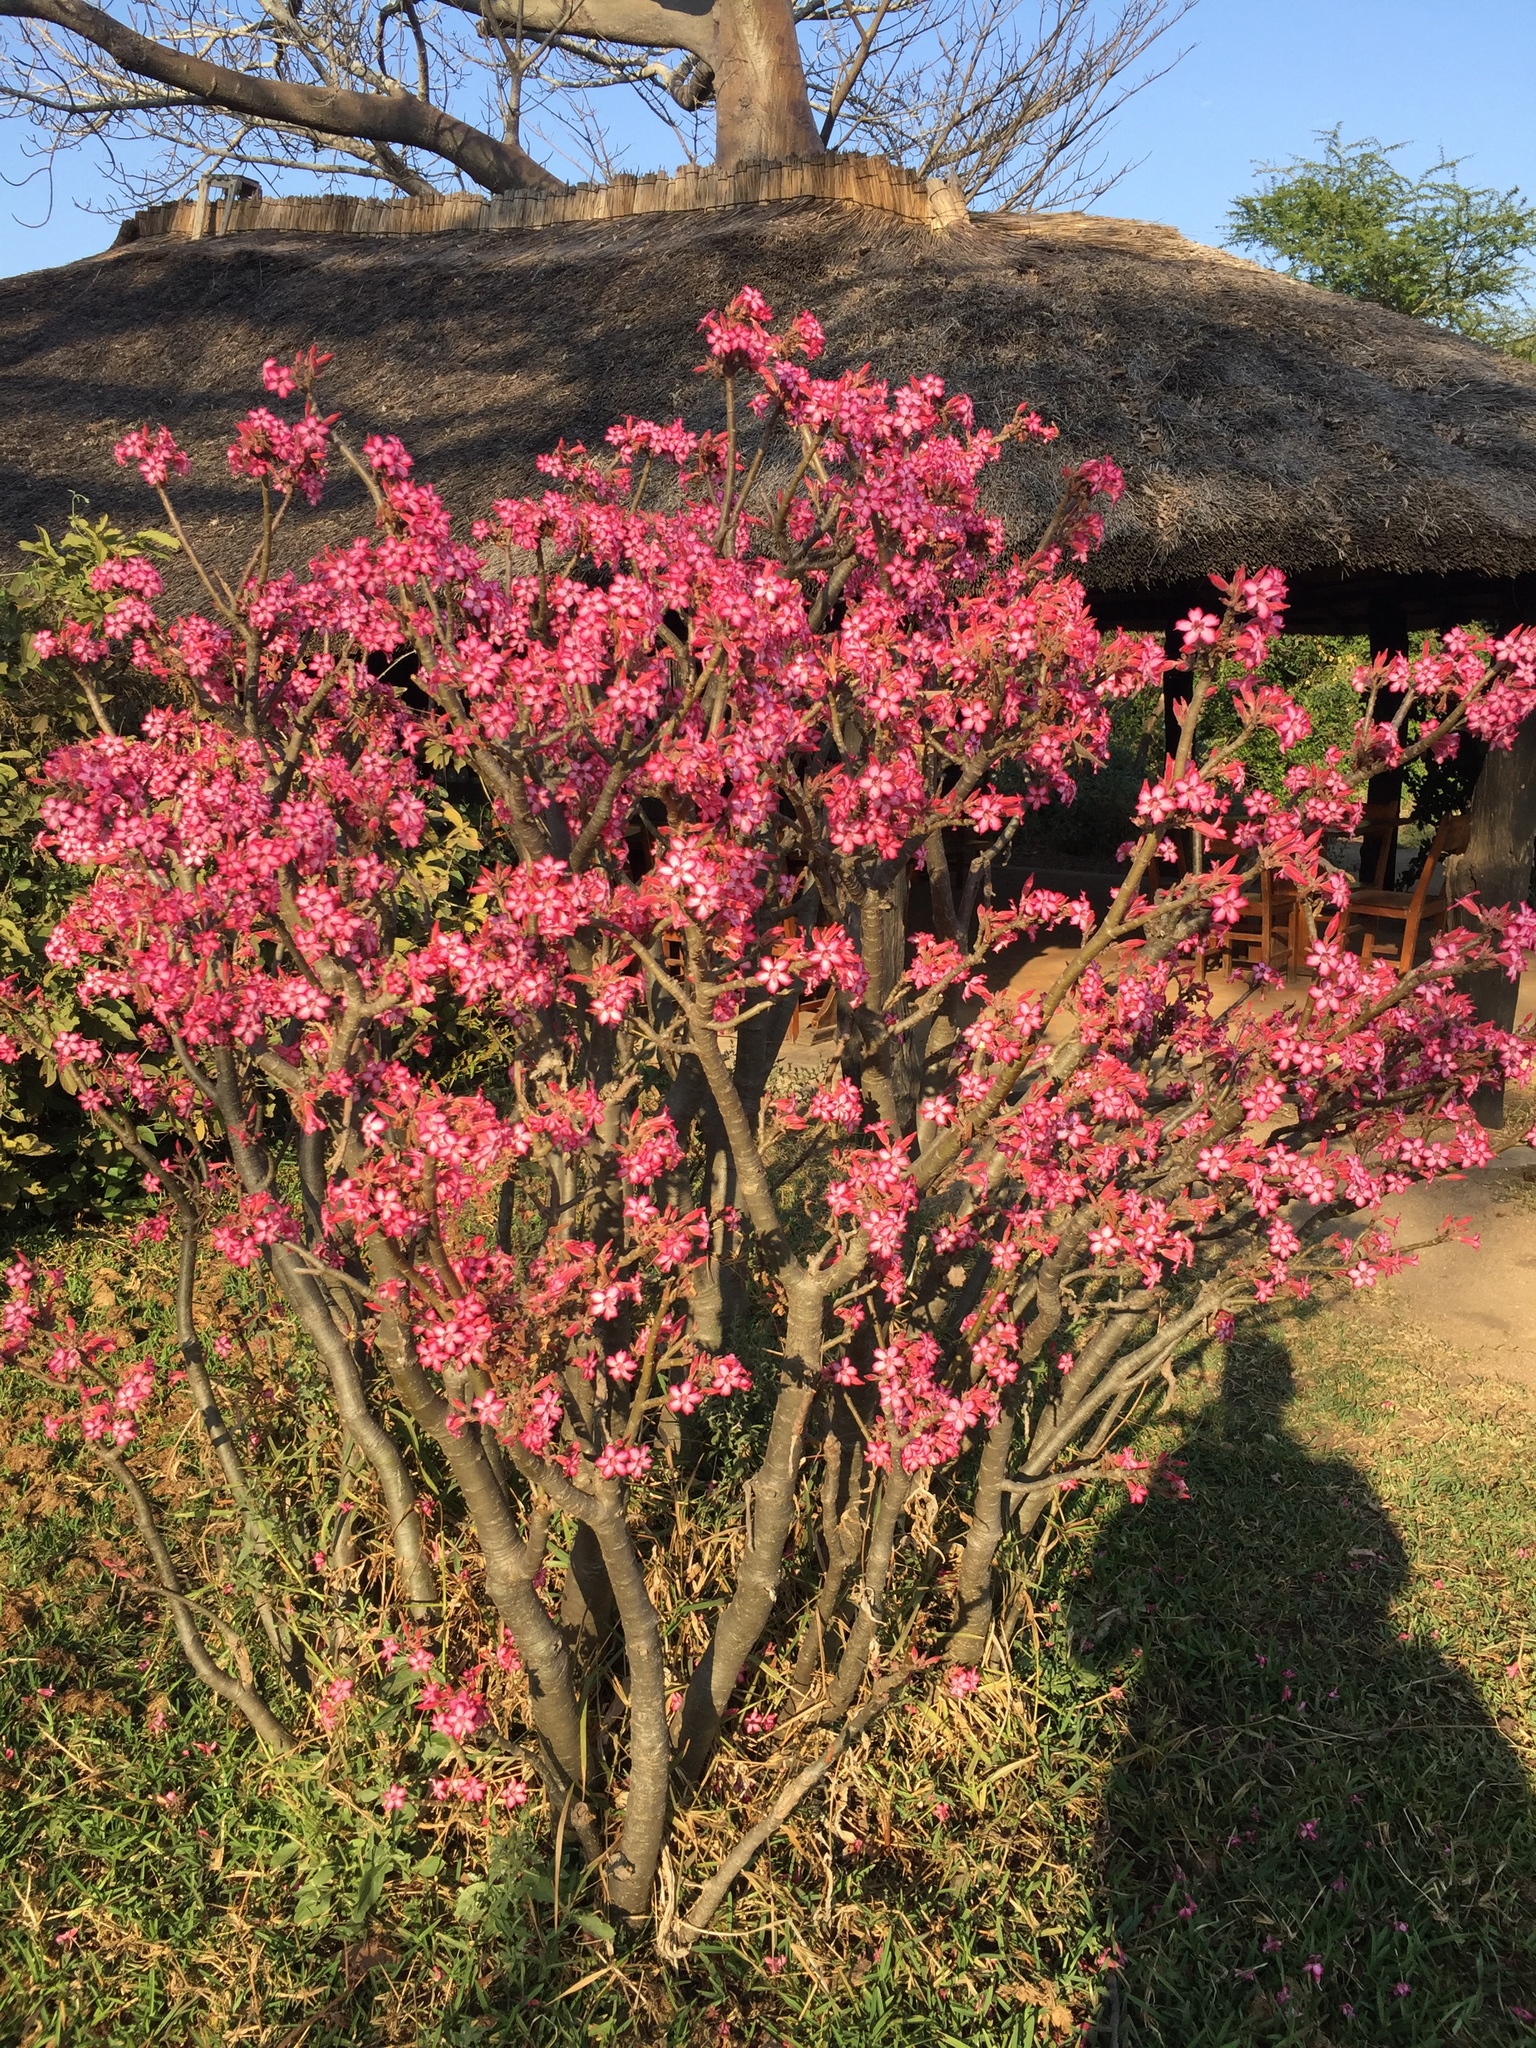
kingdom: Plantae
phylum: Tracheophyta
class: Magnoliopsida
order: Gentianales
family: Apocynaceae
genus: Adenium
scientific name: Adenium obesum
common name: Desert-rose
